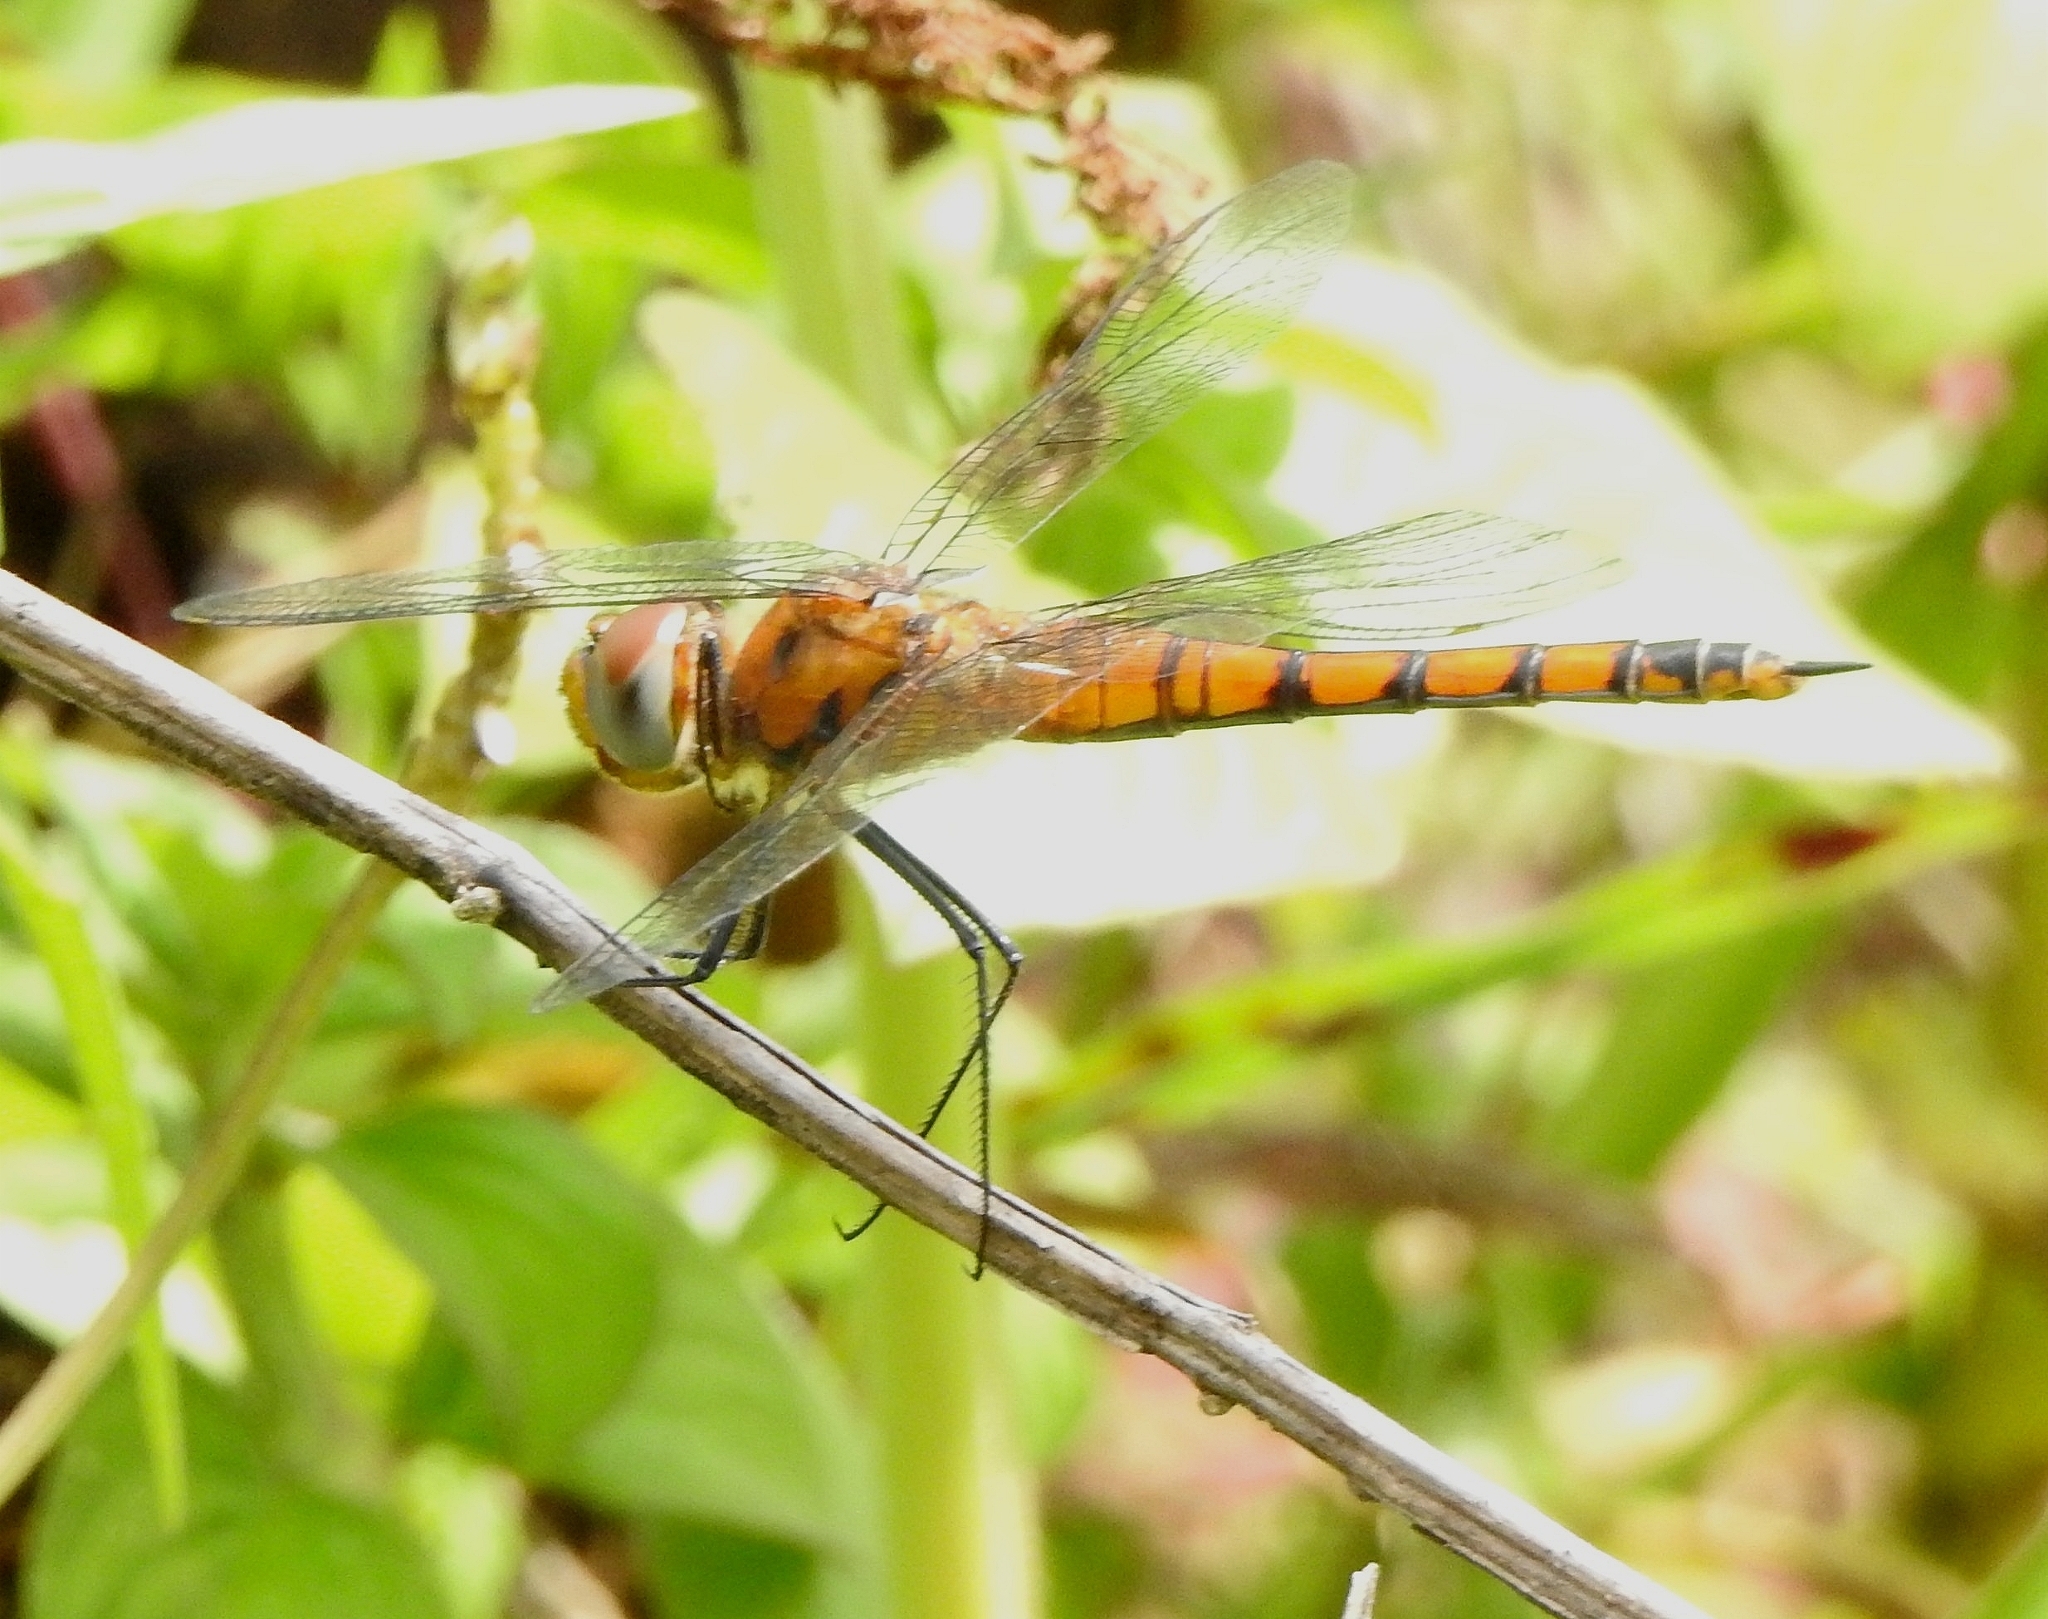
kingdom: Animalia
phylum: Arthropoda
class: Insecta
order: Odonata
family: Libellulidae
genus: Tramea
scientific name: Tramea basilaris
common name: Keyhole glider
